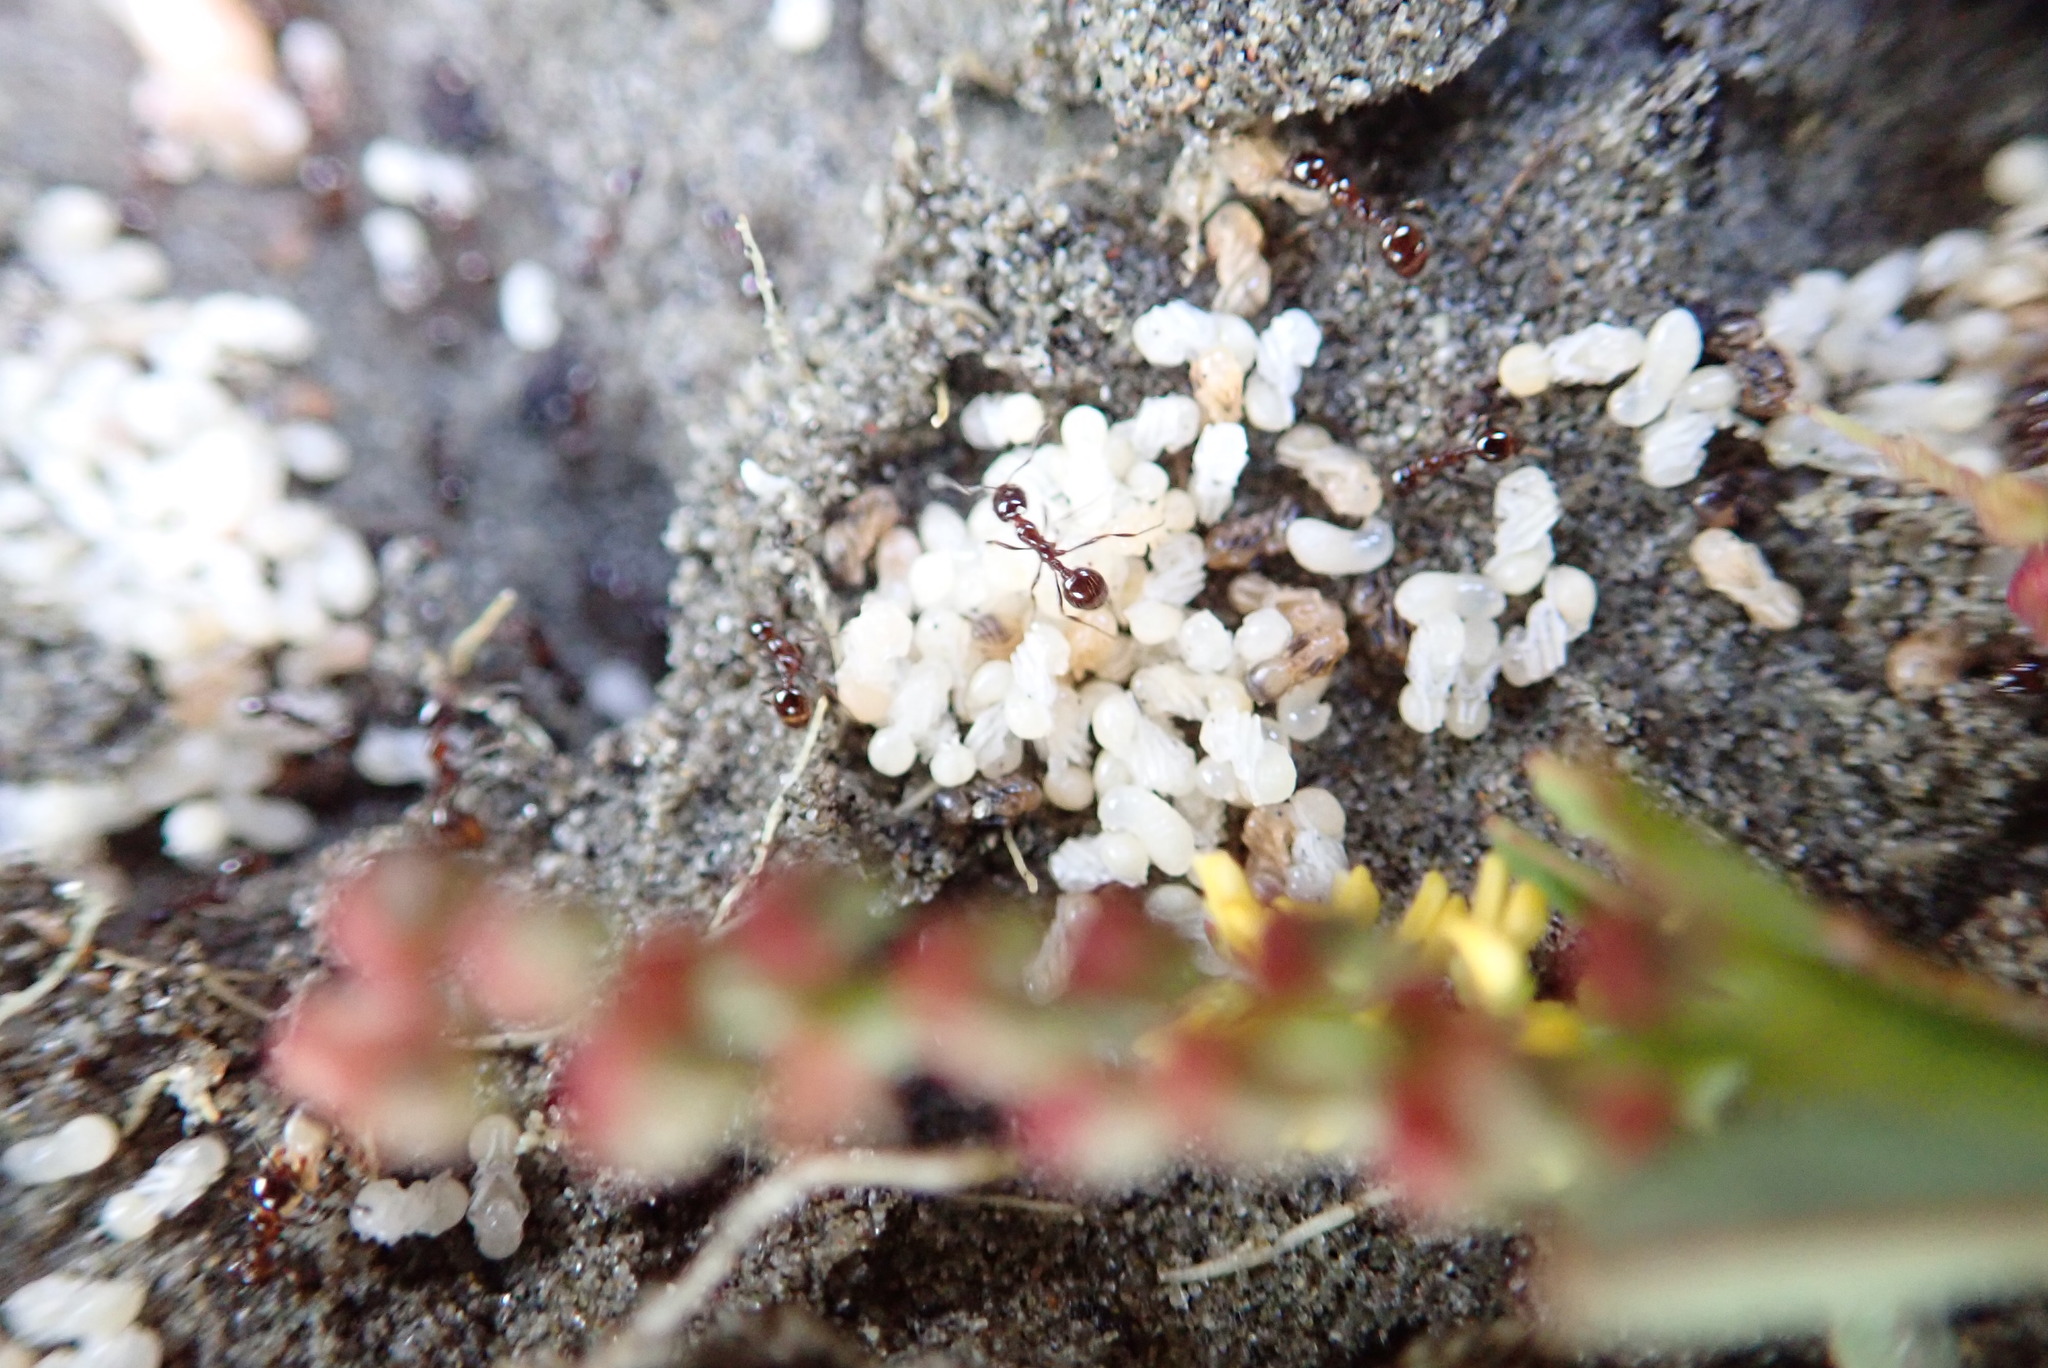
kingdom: Animalia
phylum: Arthropoda
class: Insecta
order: Hymenoptera
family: Formicidae
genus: Monomorium
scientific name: Monomorium antarcticum
